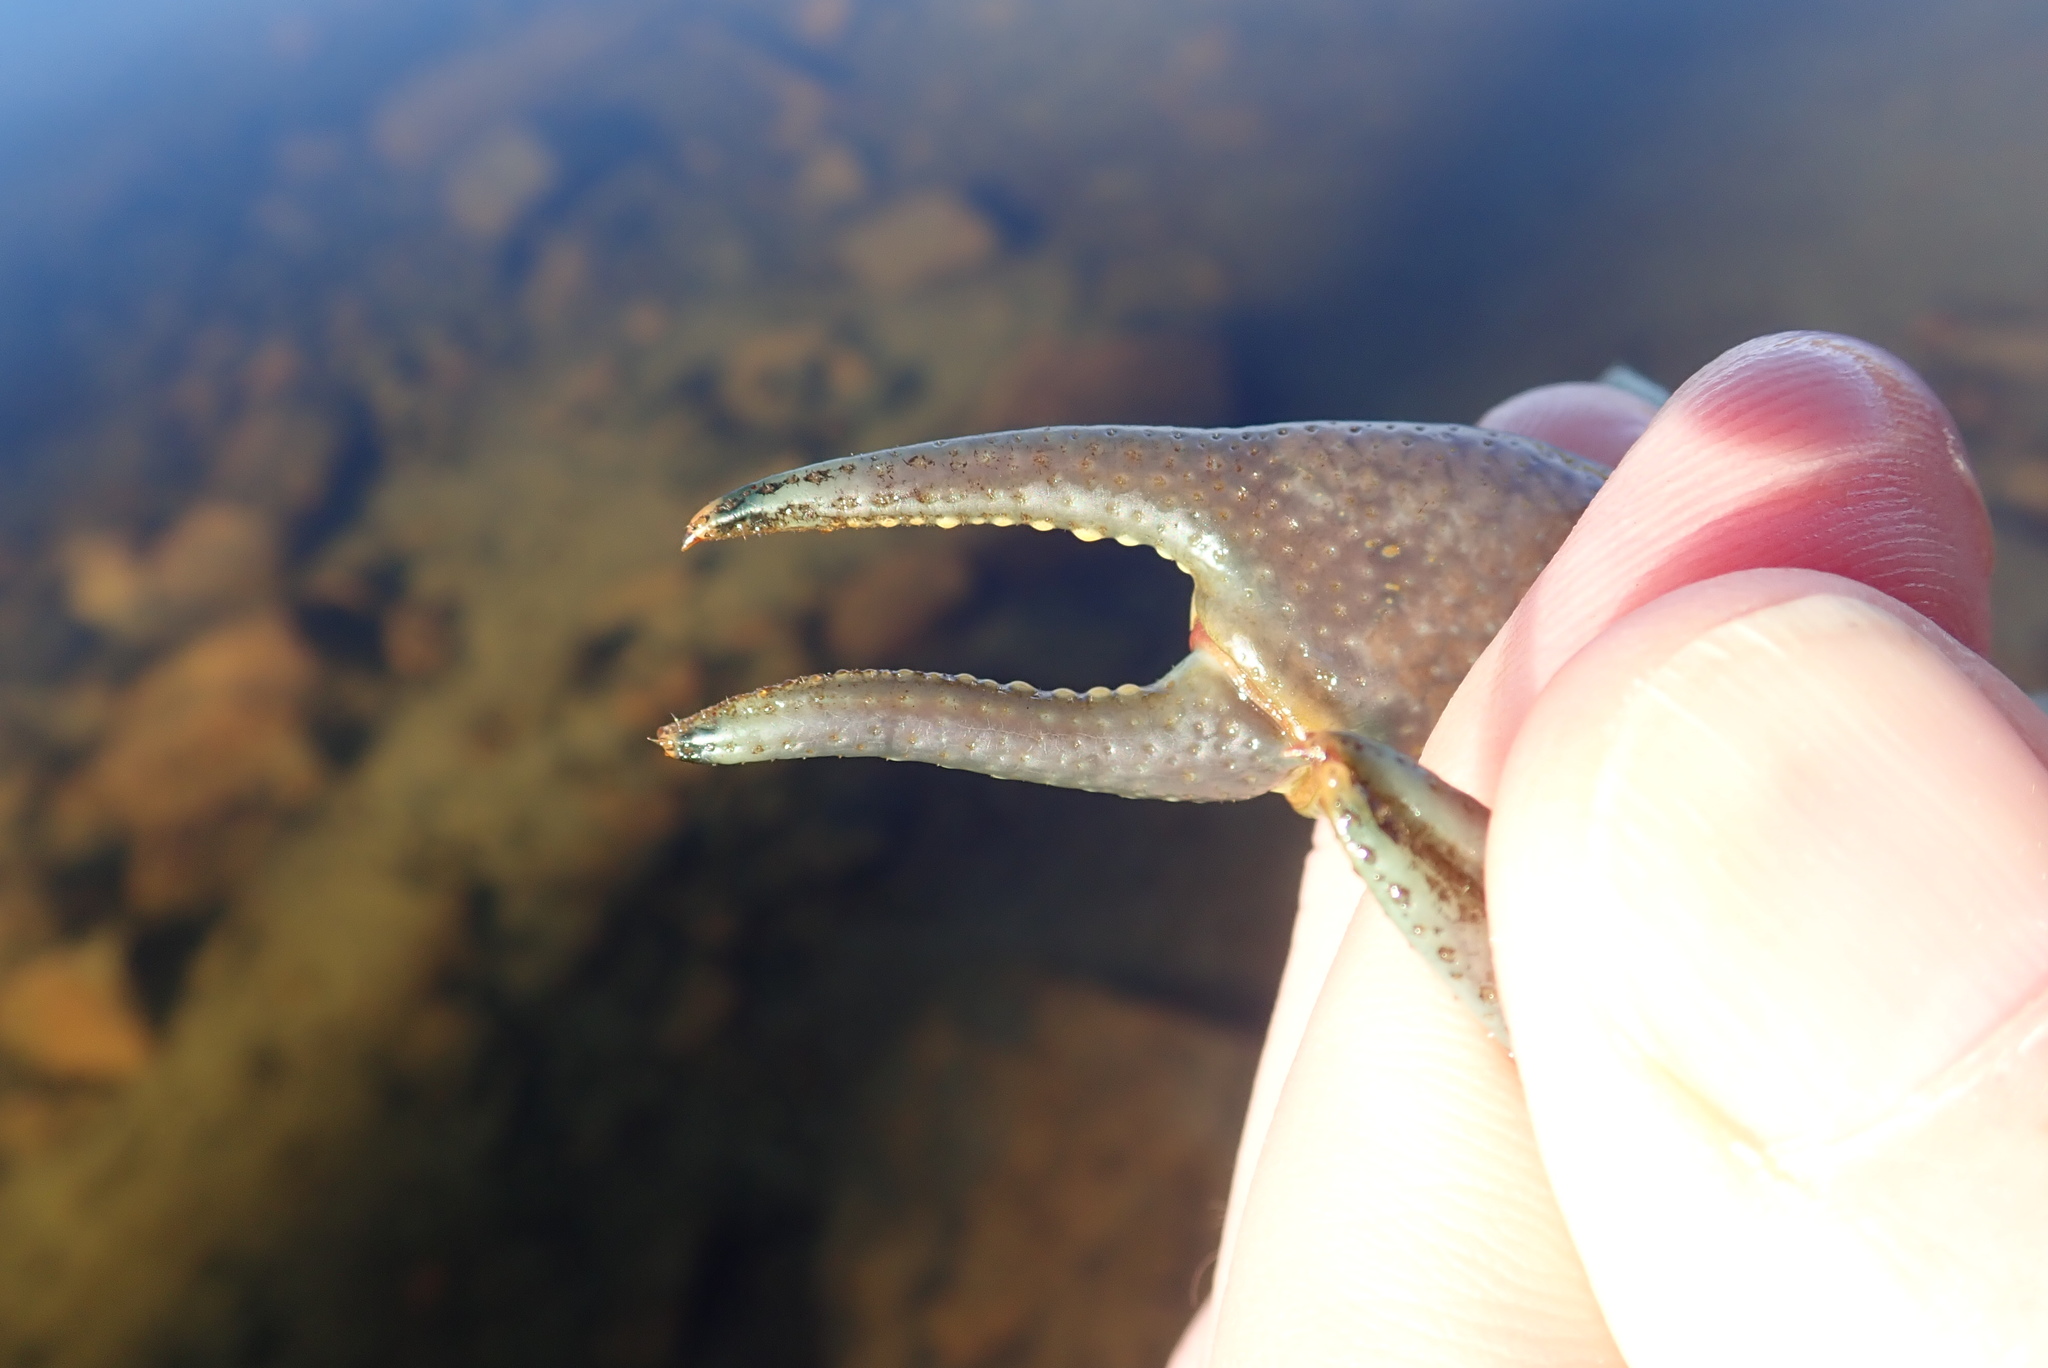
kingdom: Animalia
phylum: Arthropoda
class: Malacostraca
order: Decapoda
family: Cambaridae
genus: Faxonius
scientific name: Faxonius rusticus
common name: Rusty crayfish
